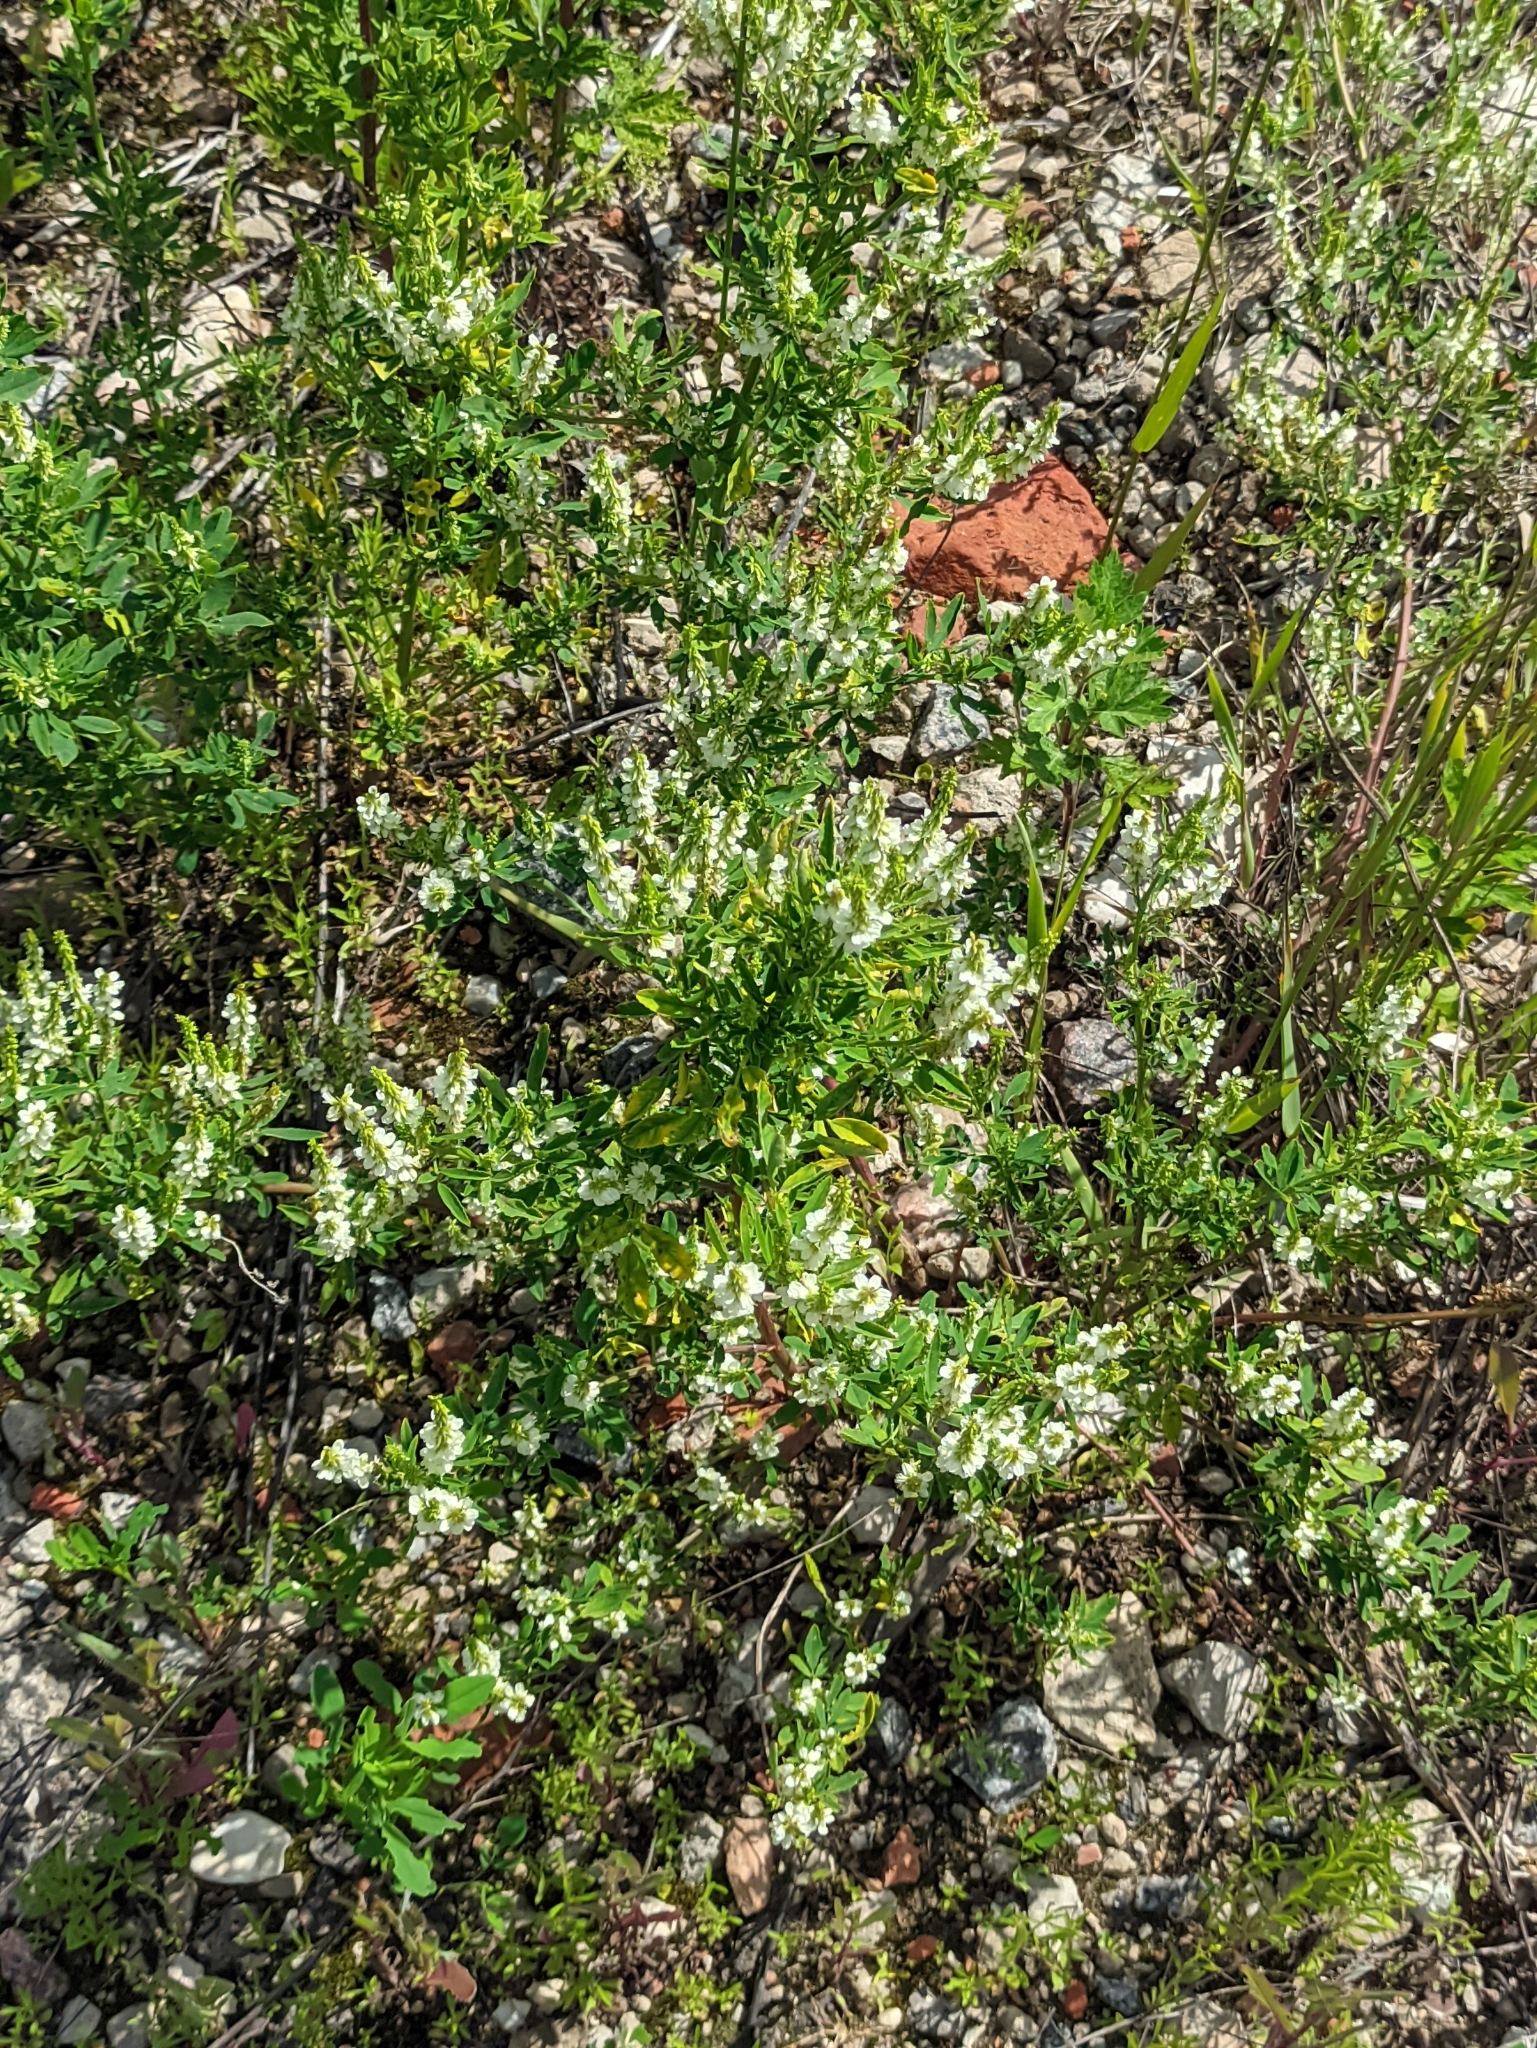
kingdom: Plantae
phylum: Tracheophyta
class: Magnoliopsida
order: Fabales
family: Fabaceae
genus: Melilotus
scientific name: Melilotus albus
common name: White melilot
